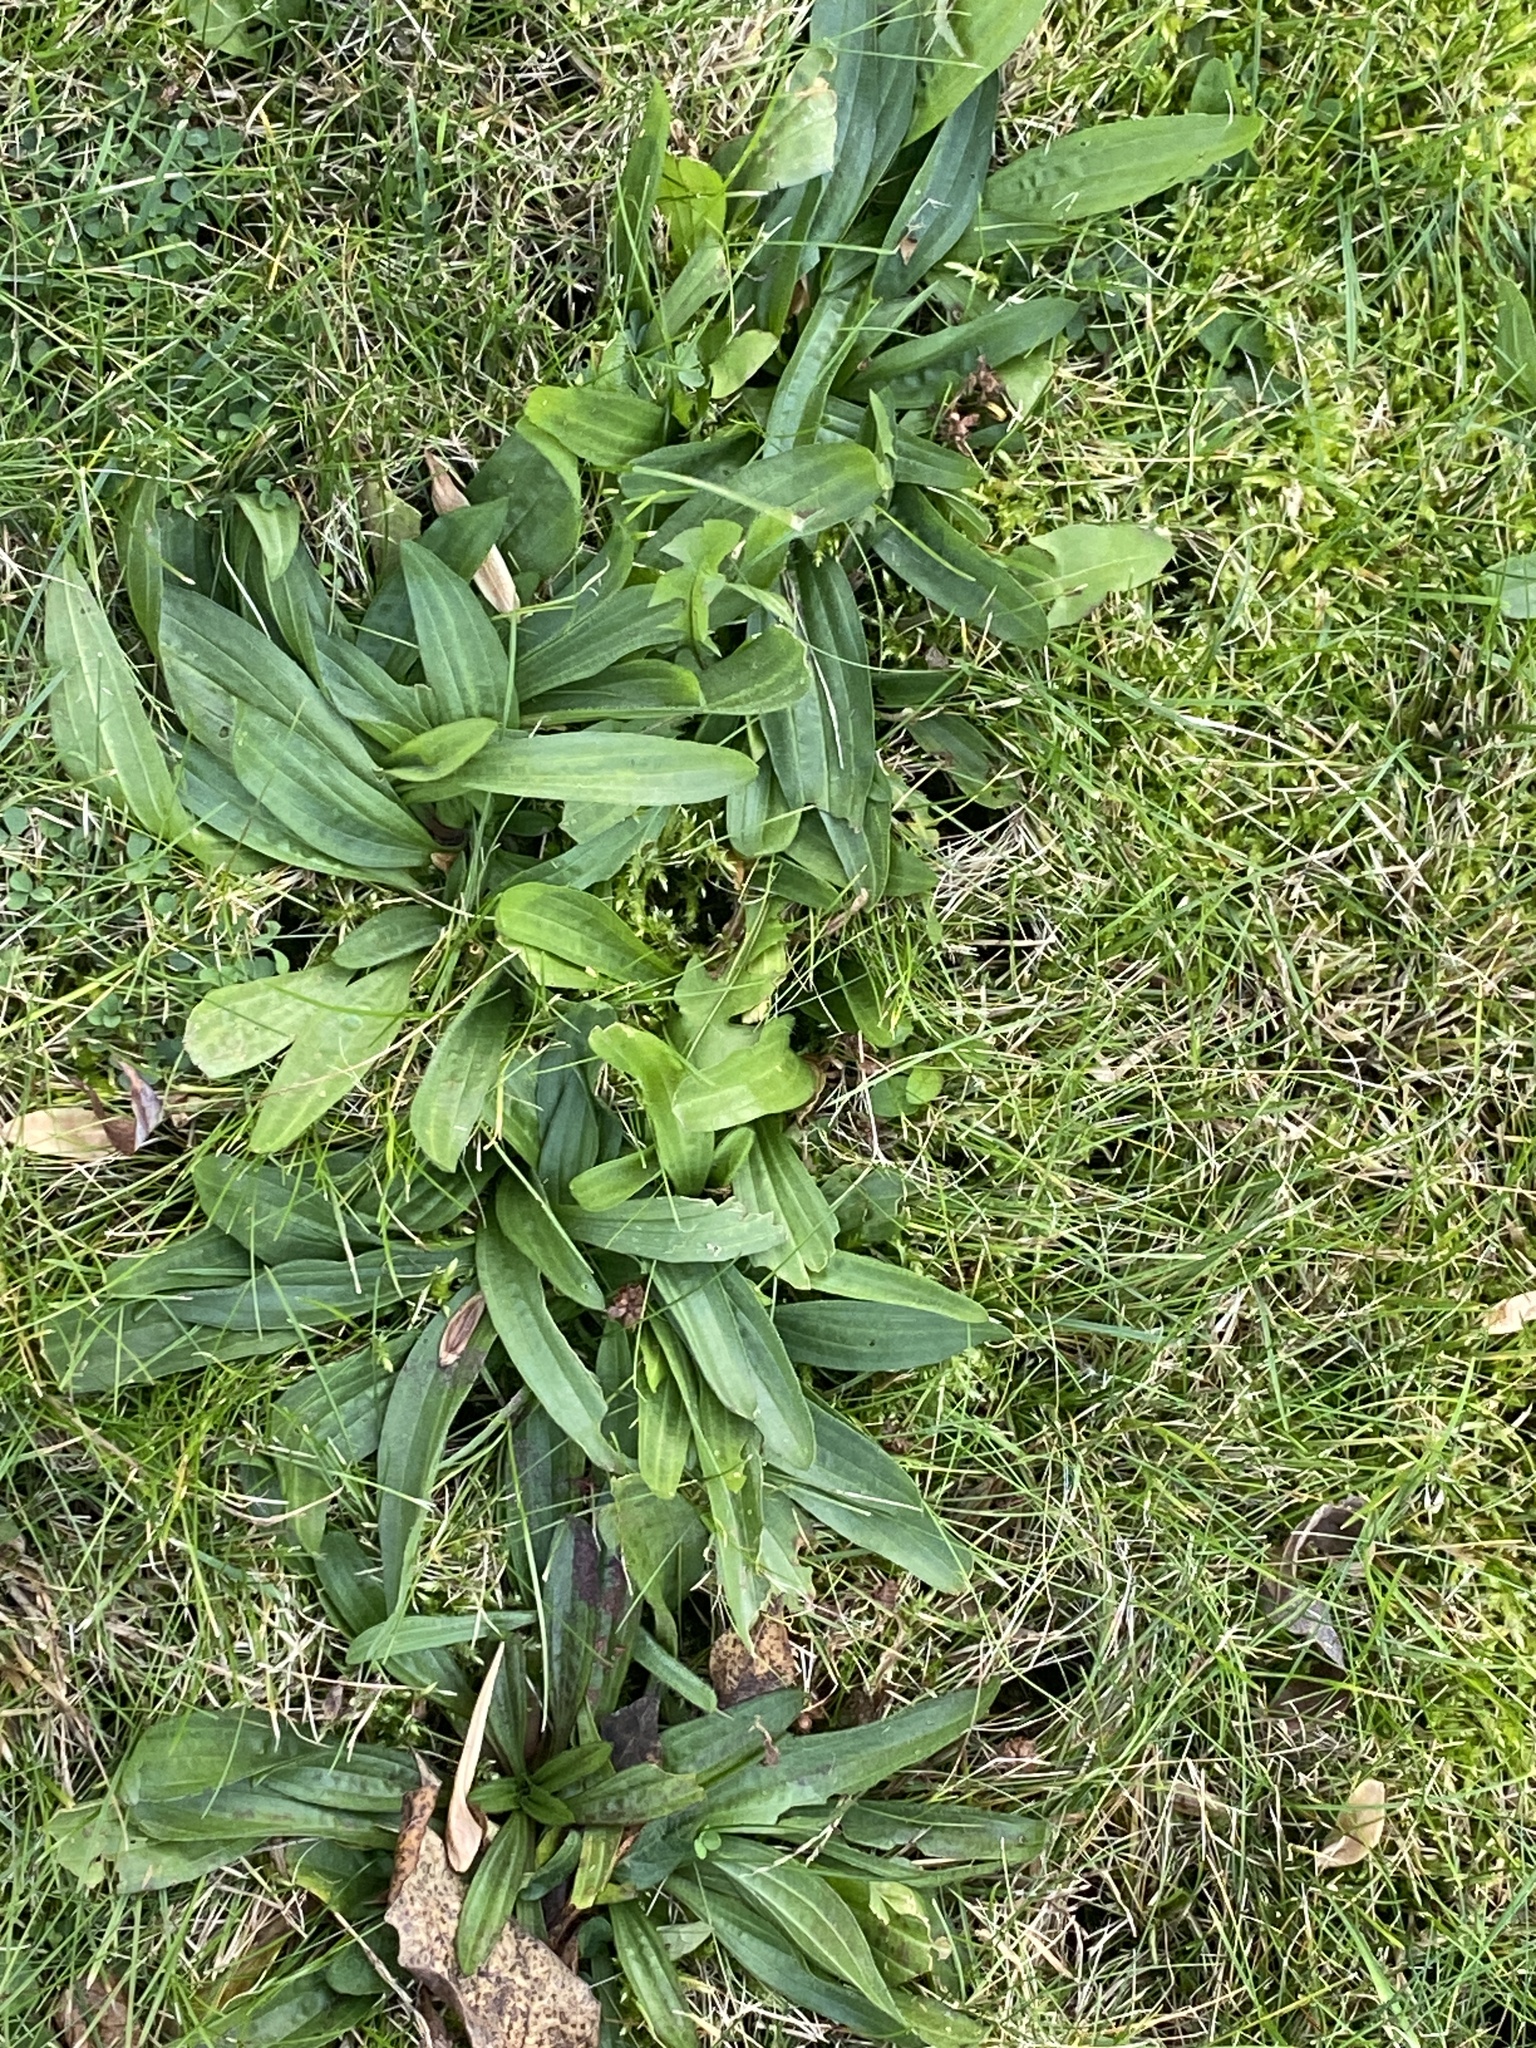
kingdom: Plantae
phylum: Tracheophyta
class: Magnoliopsida
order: Lamiales
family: Plantaginaceae
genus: Plantago
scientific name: Plantago lanceolata
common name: Ribwort plantain
